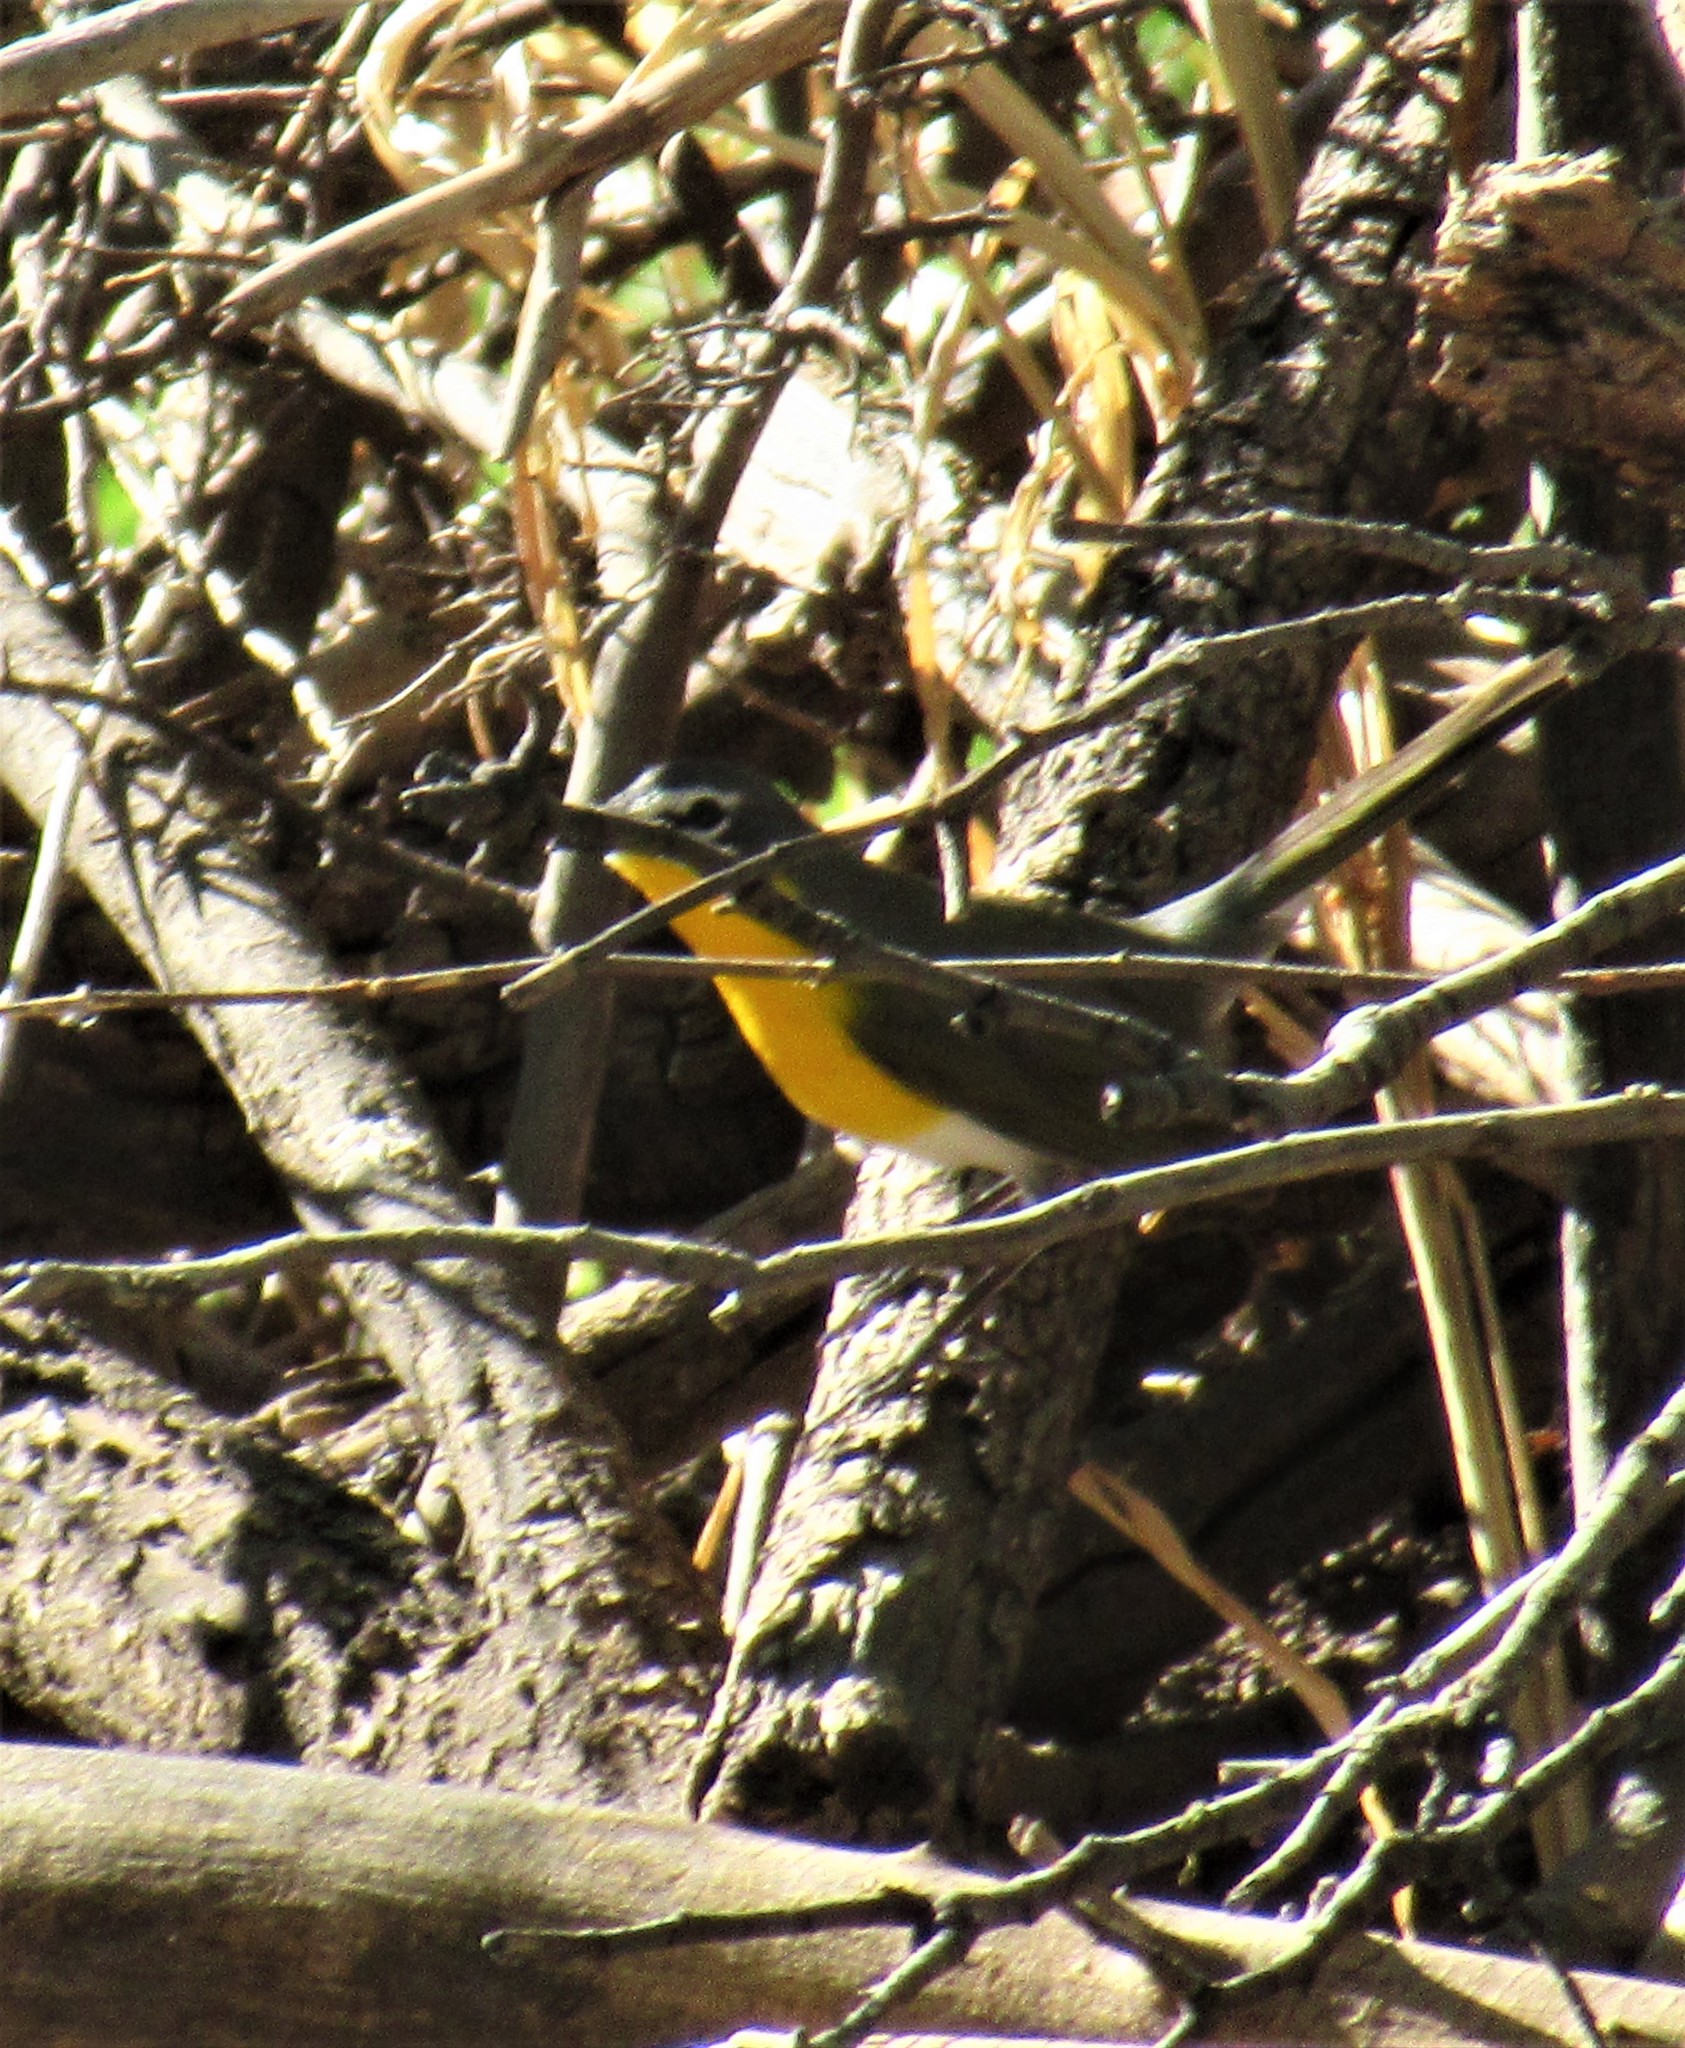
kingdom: Animalia
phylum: Chordata
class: Aves
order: Passeriformes
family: Parulidae
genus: Icteria
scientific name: Icteria virens
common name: Yellow-breasted chat
